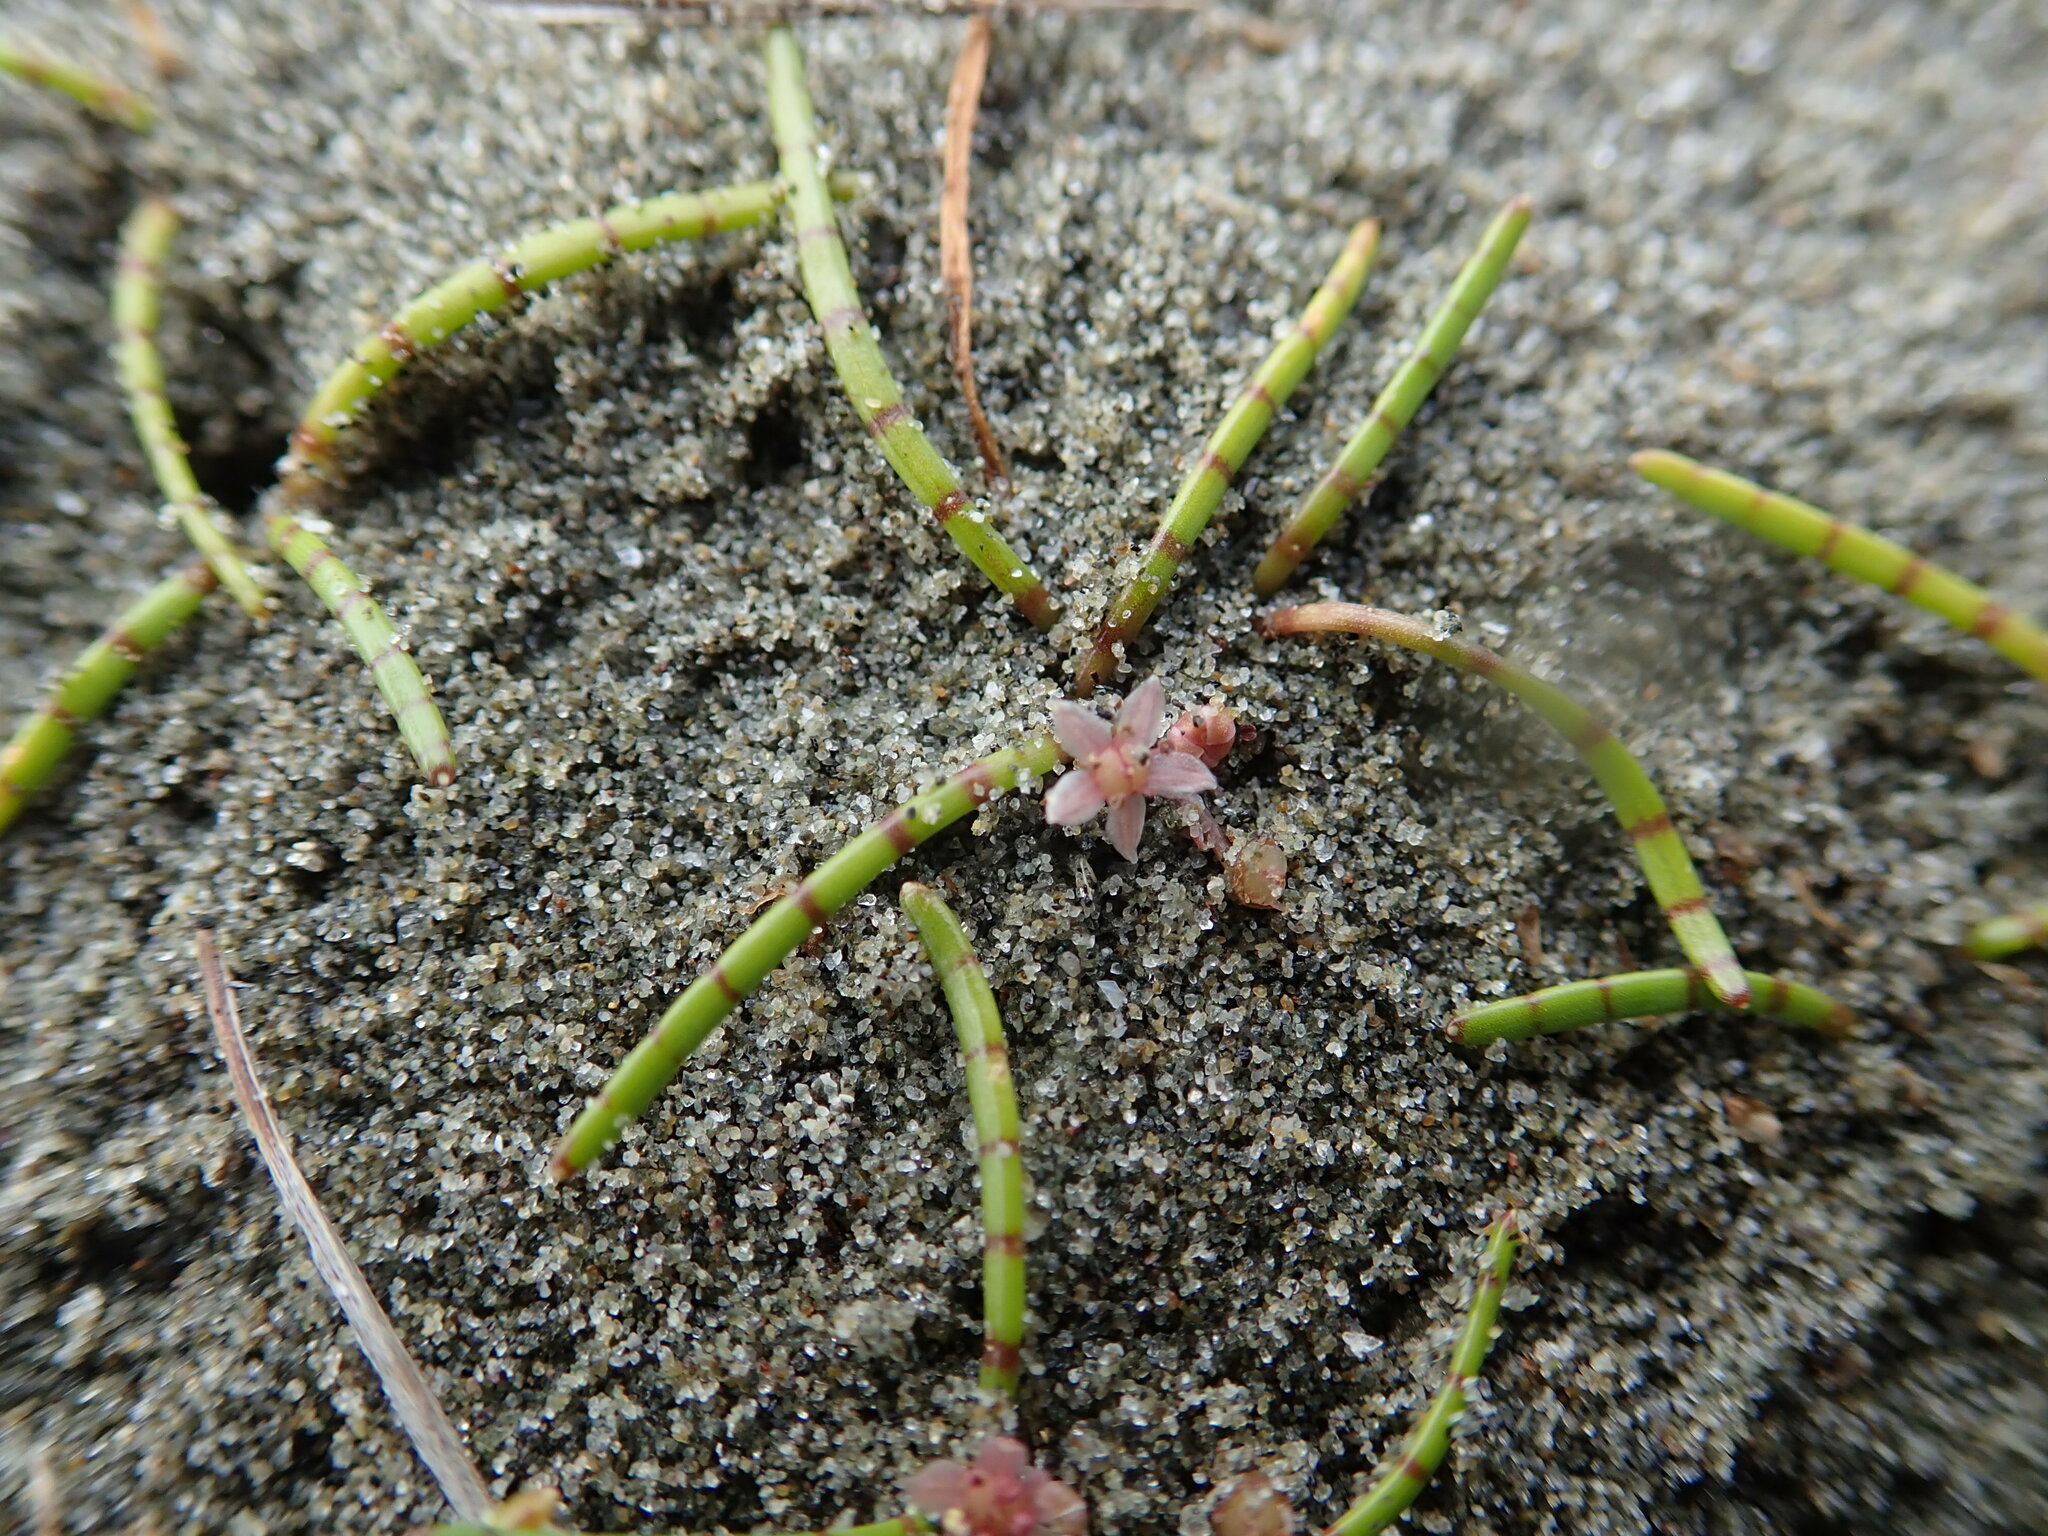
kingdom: Plantae
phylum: Tracheophyta
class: Magnoliopsida
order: Apiales
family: Apiaceae
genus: Lilaeopsis
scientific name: Lilaeopsis novae-zelandiae
